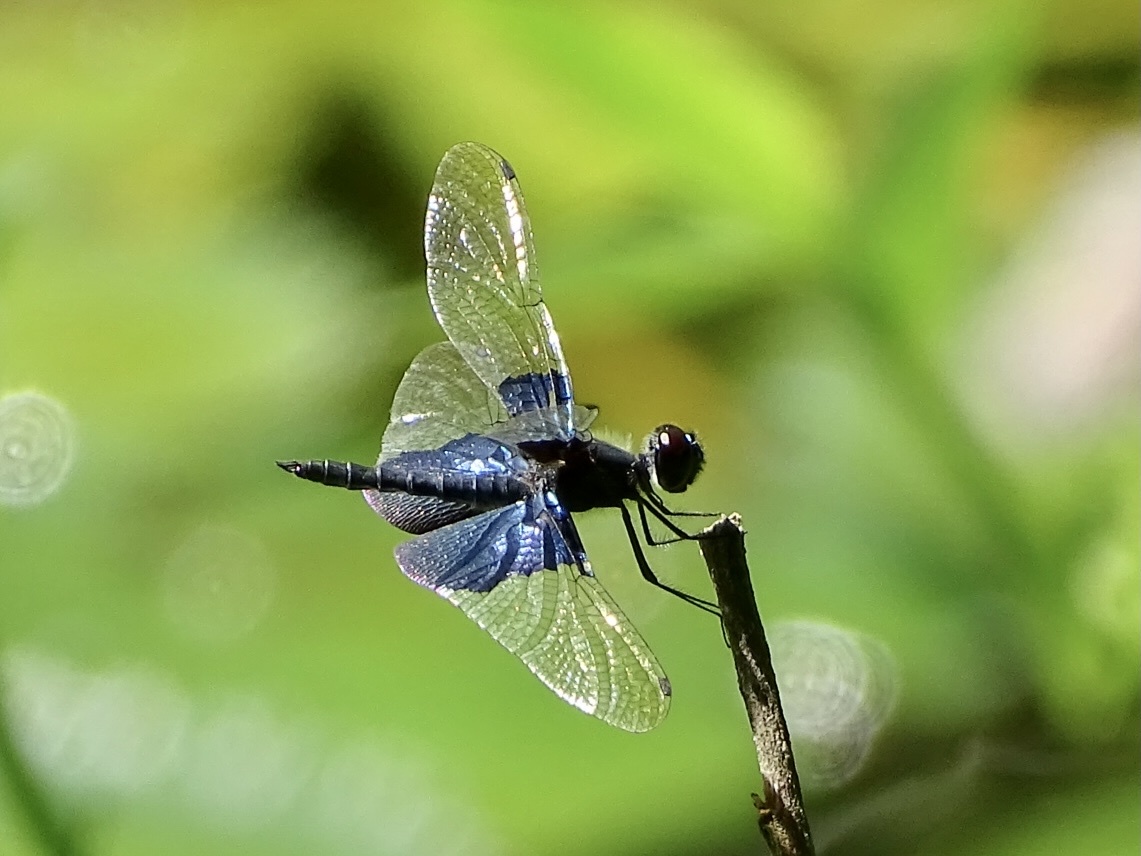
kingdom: Animalia
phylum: Arthropoda
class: Insecta
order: Odonata
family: Libellulidae
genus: Rhyothemis
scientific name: Rhyothemis triangularis
